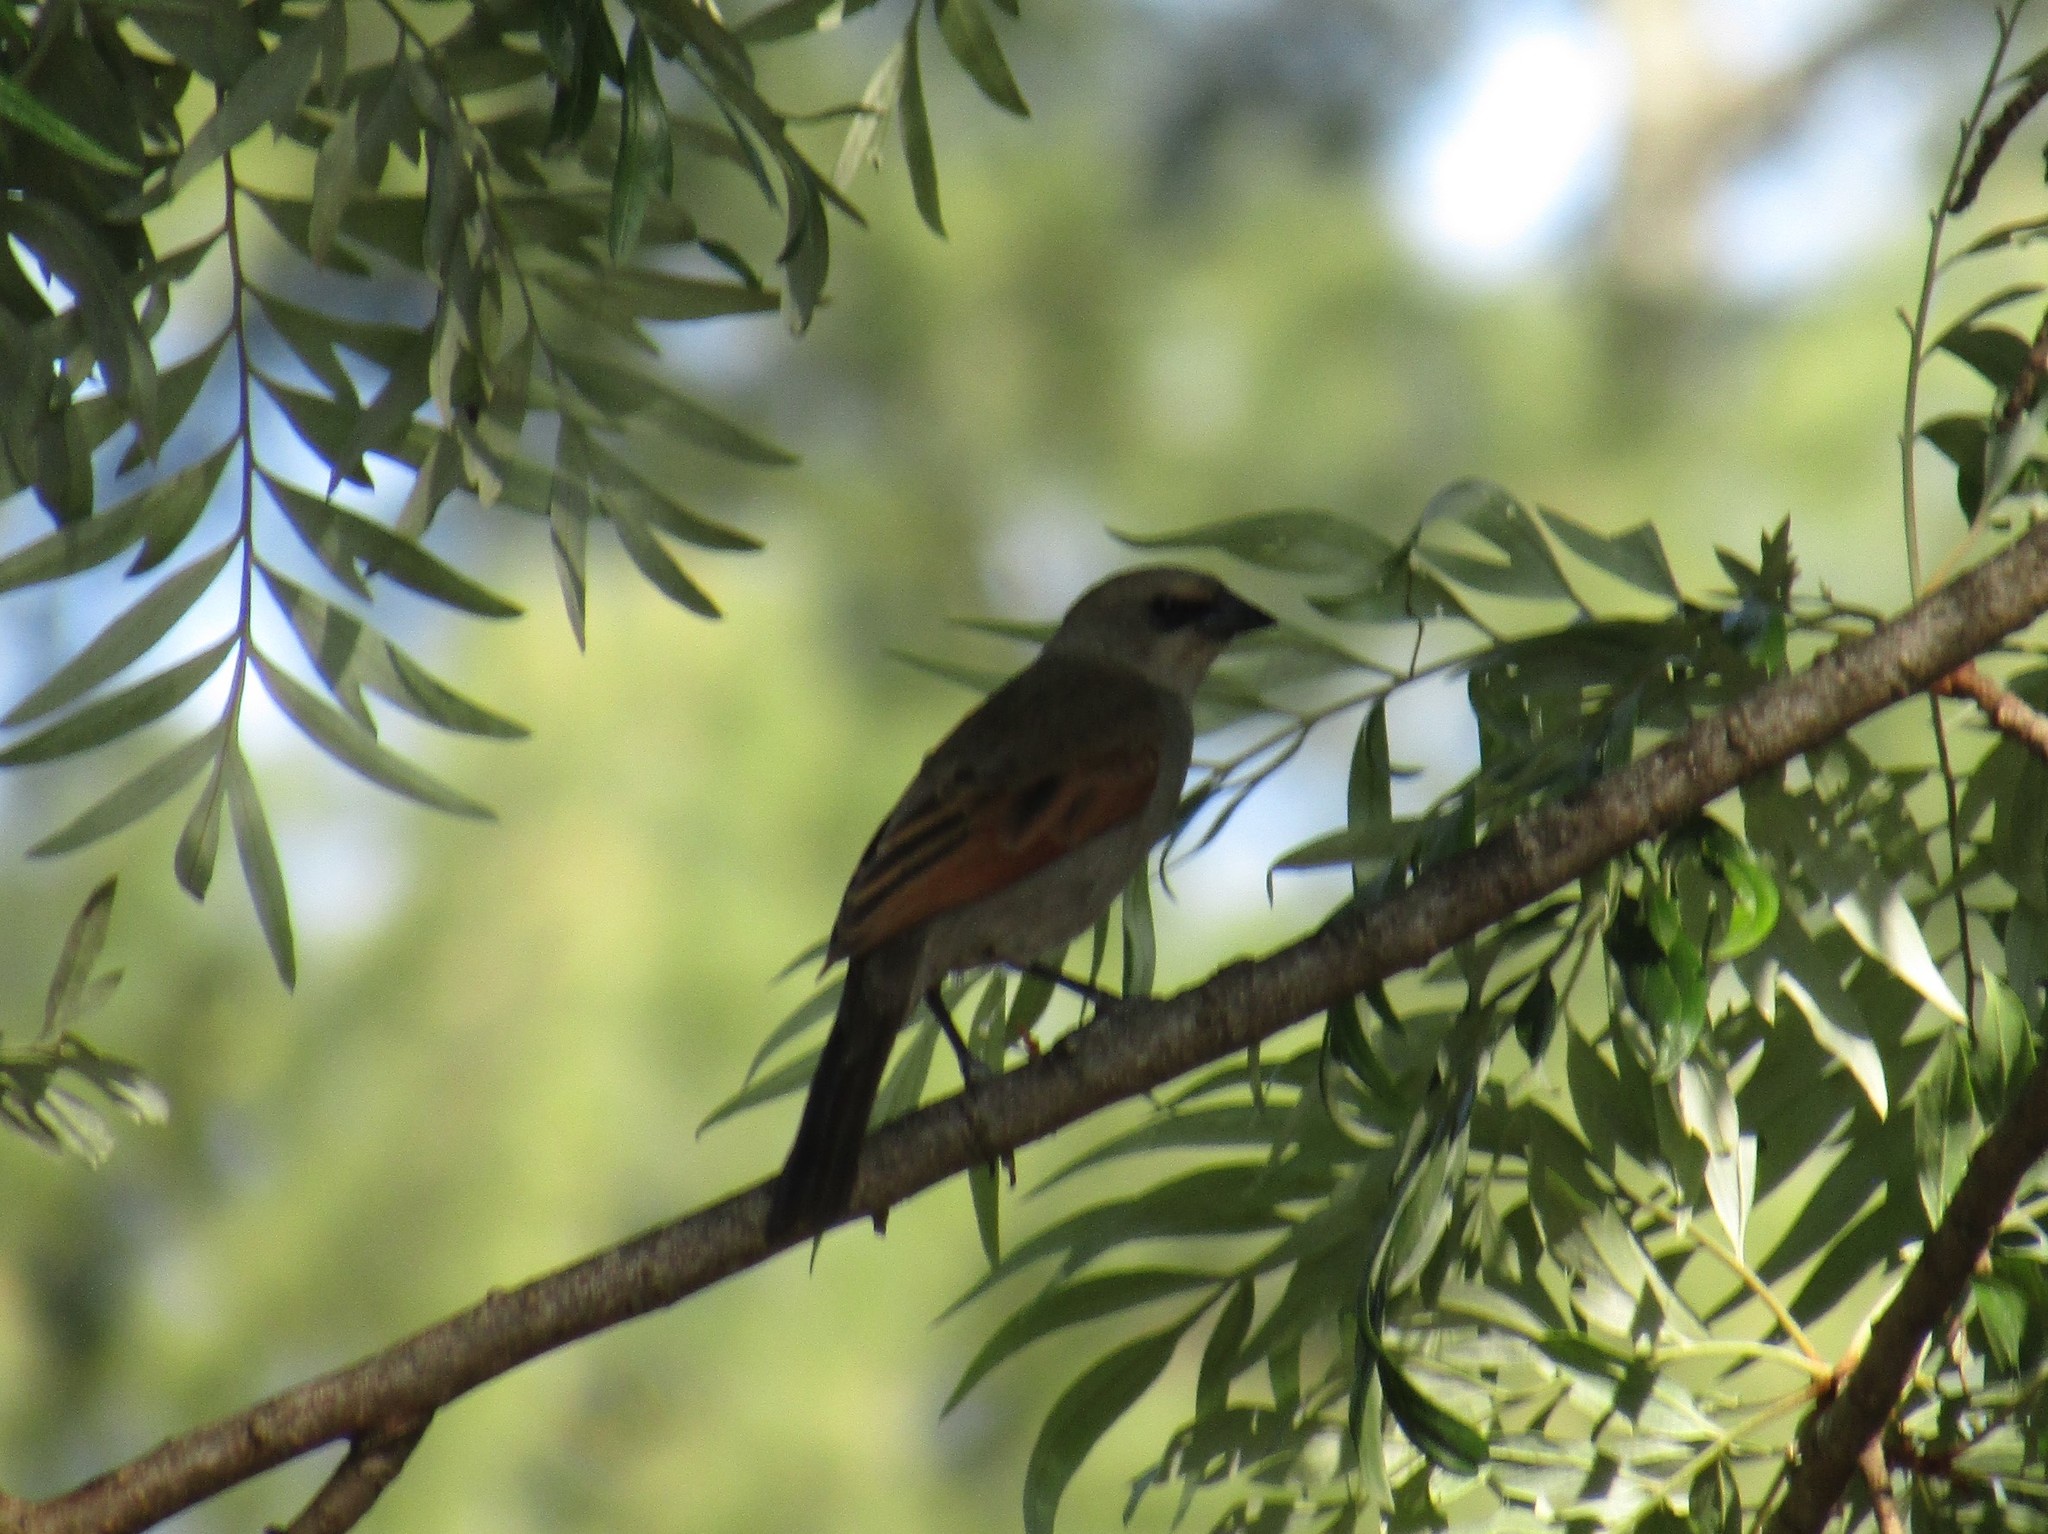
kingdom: Animalia
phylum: Chordata
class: Aves
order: Passeriformes
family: Icteridae
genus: Agelaioides
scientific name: Agelaioides badius
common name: Baywing
